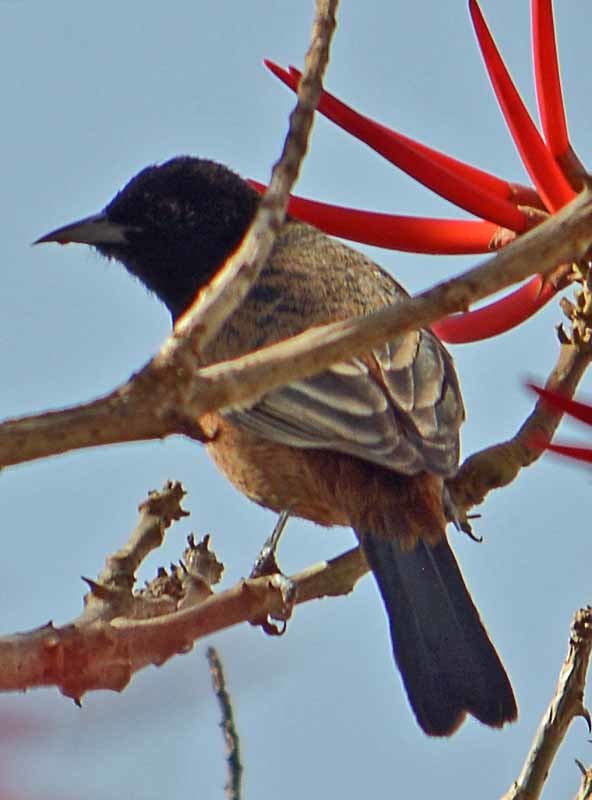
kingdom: Animalia
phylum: Chordata
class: Aves
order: Passeriformes
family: Icteridae
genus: Icterus
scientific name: Icterus spurius
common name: Orchard oriole
